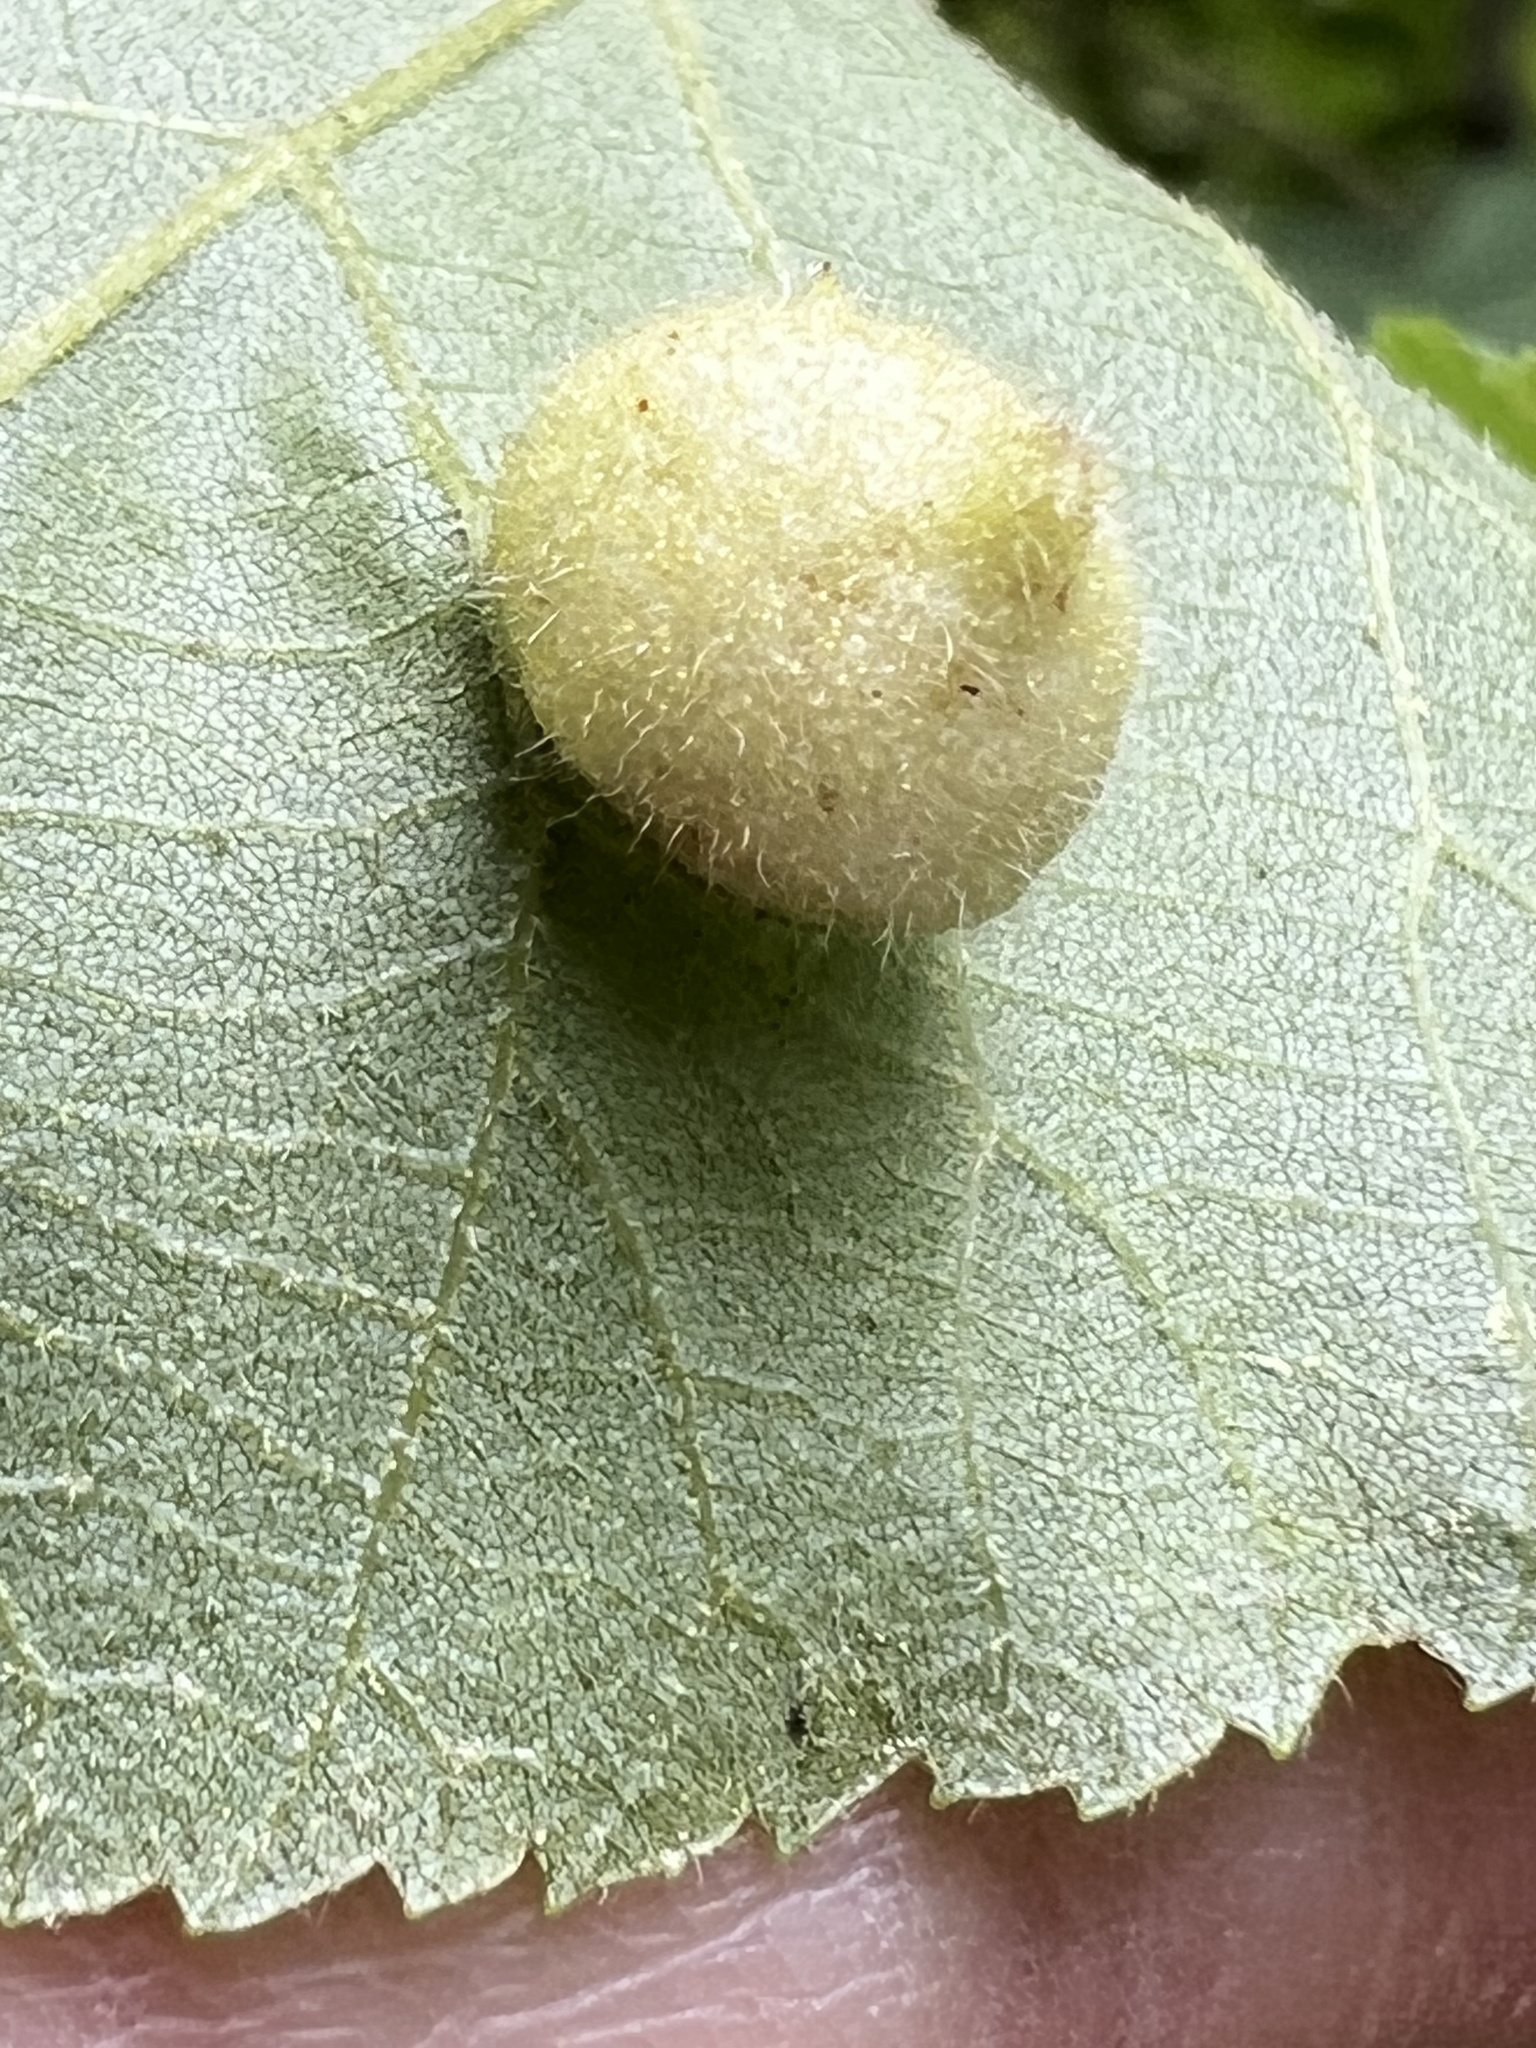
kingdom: Animalia
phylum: Arthropoda
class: Insecta
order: Hemiptera
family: Phylloxeridae
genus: Phylloxera
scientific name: Phylloxera caryae-avellana
